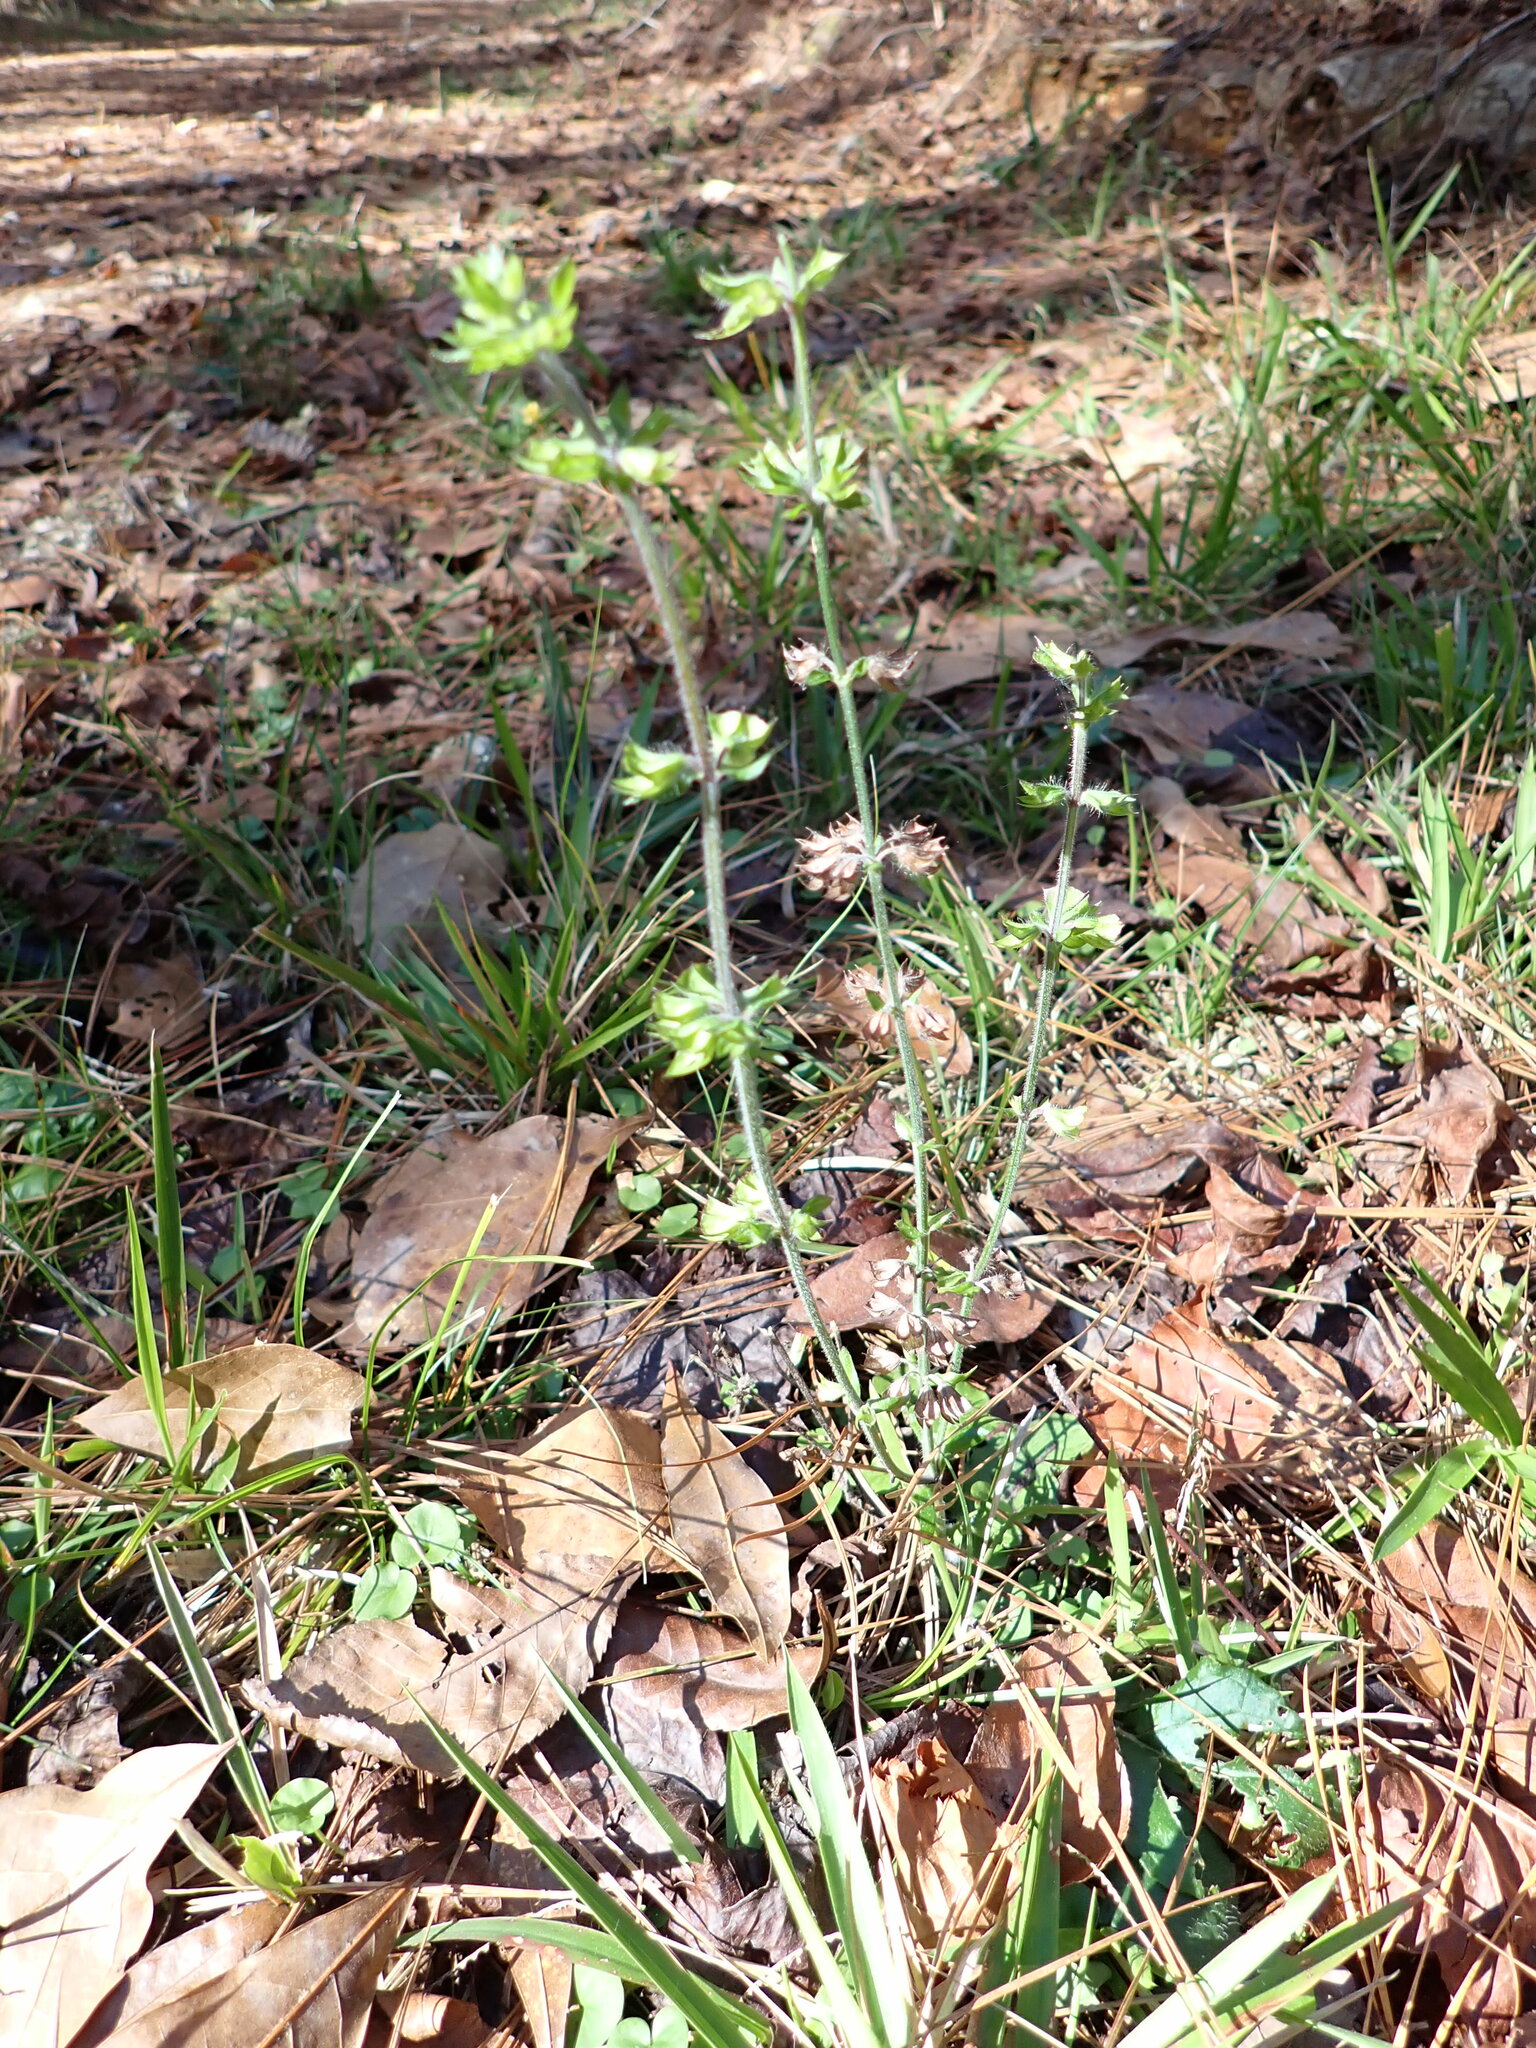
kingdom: Plantae
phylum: Tracheophyta
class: Magnoliopsida
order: Lamiales
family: Lamiaceae
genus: Salvia
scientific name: Salvia lyrata
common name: Cancerweed
